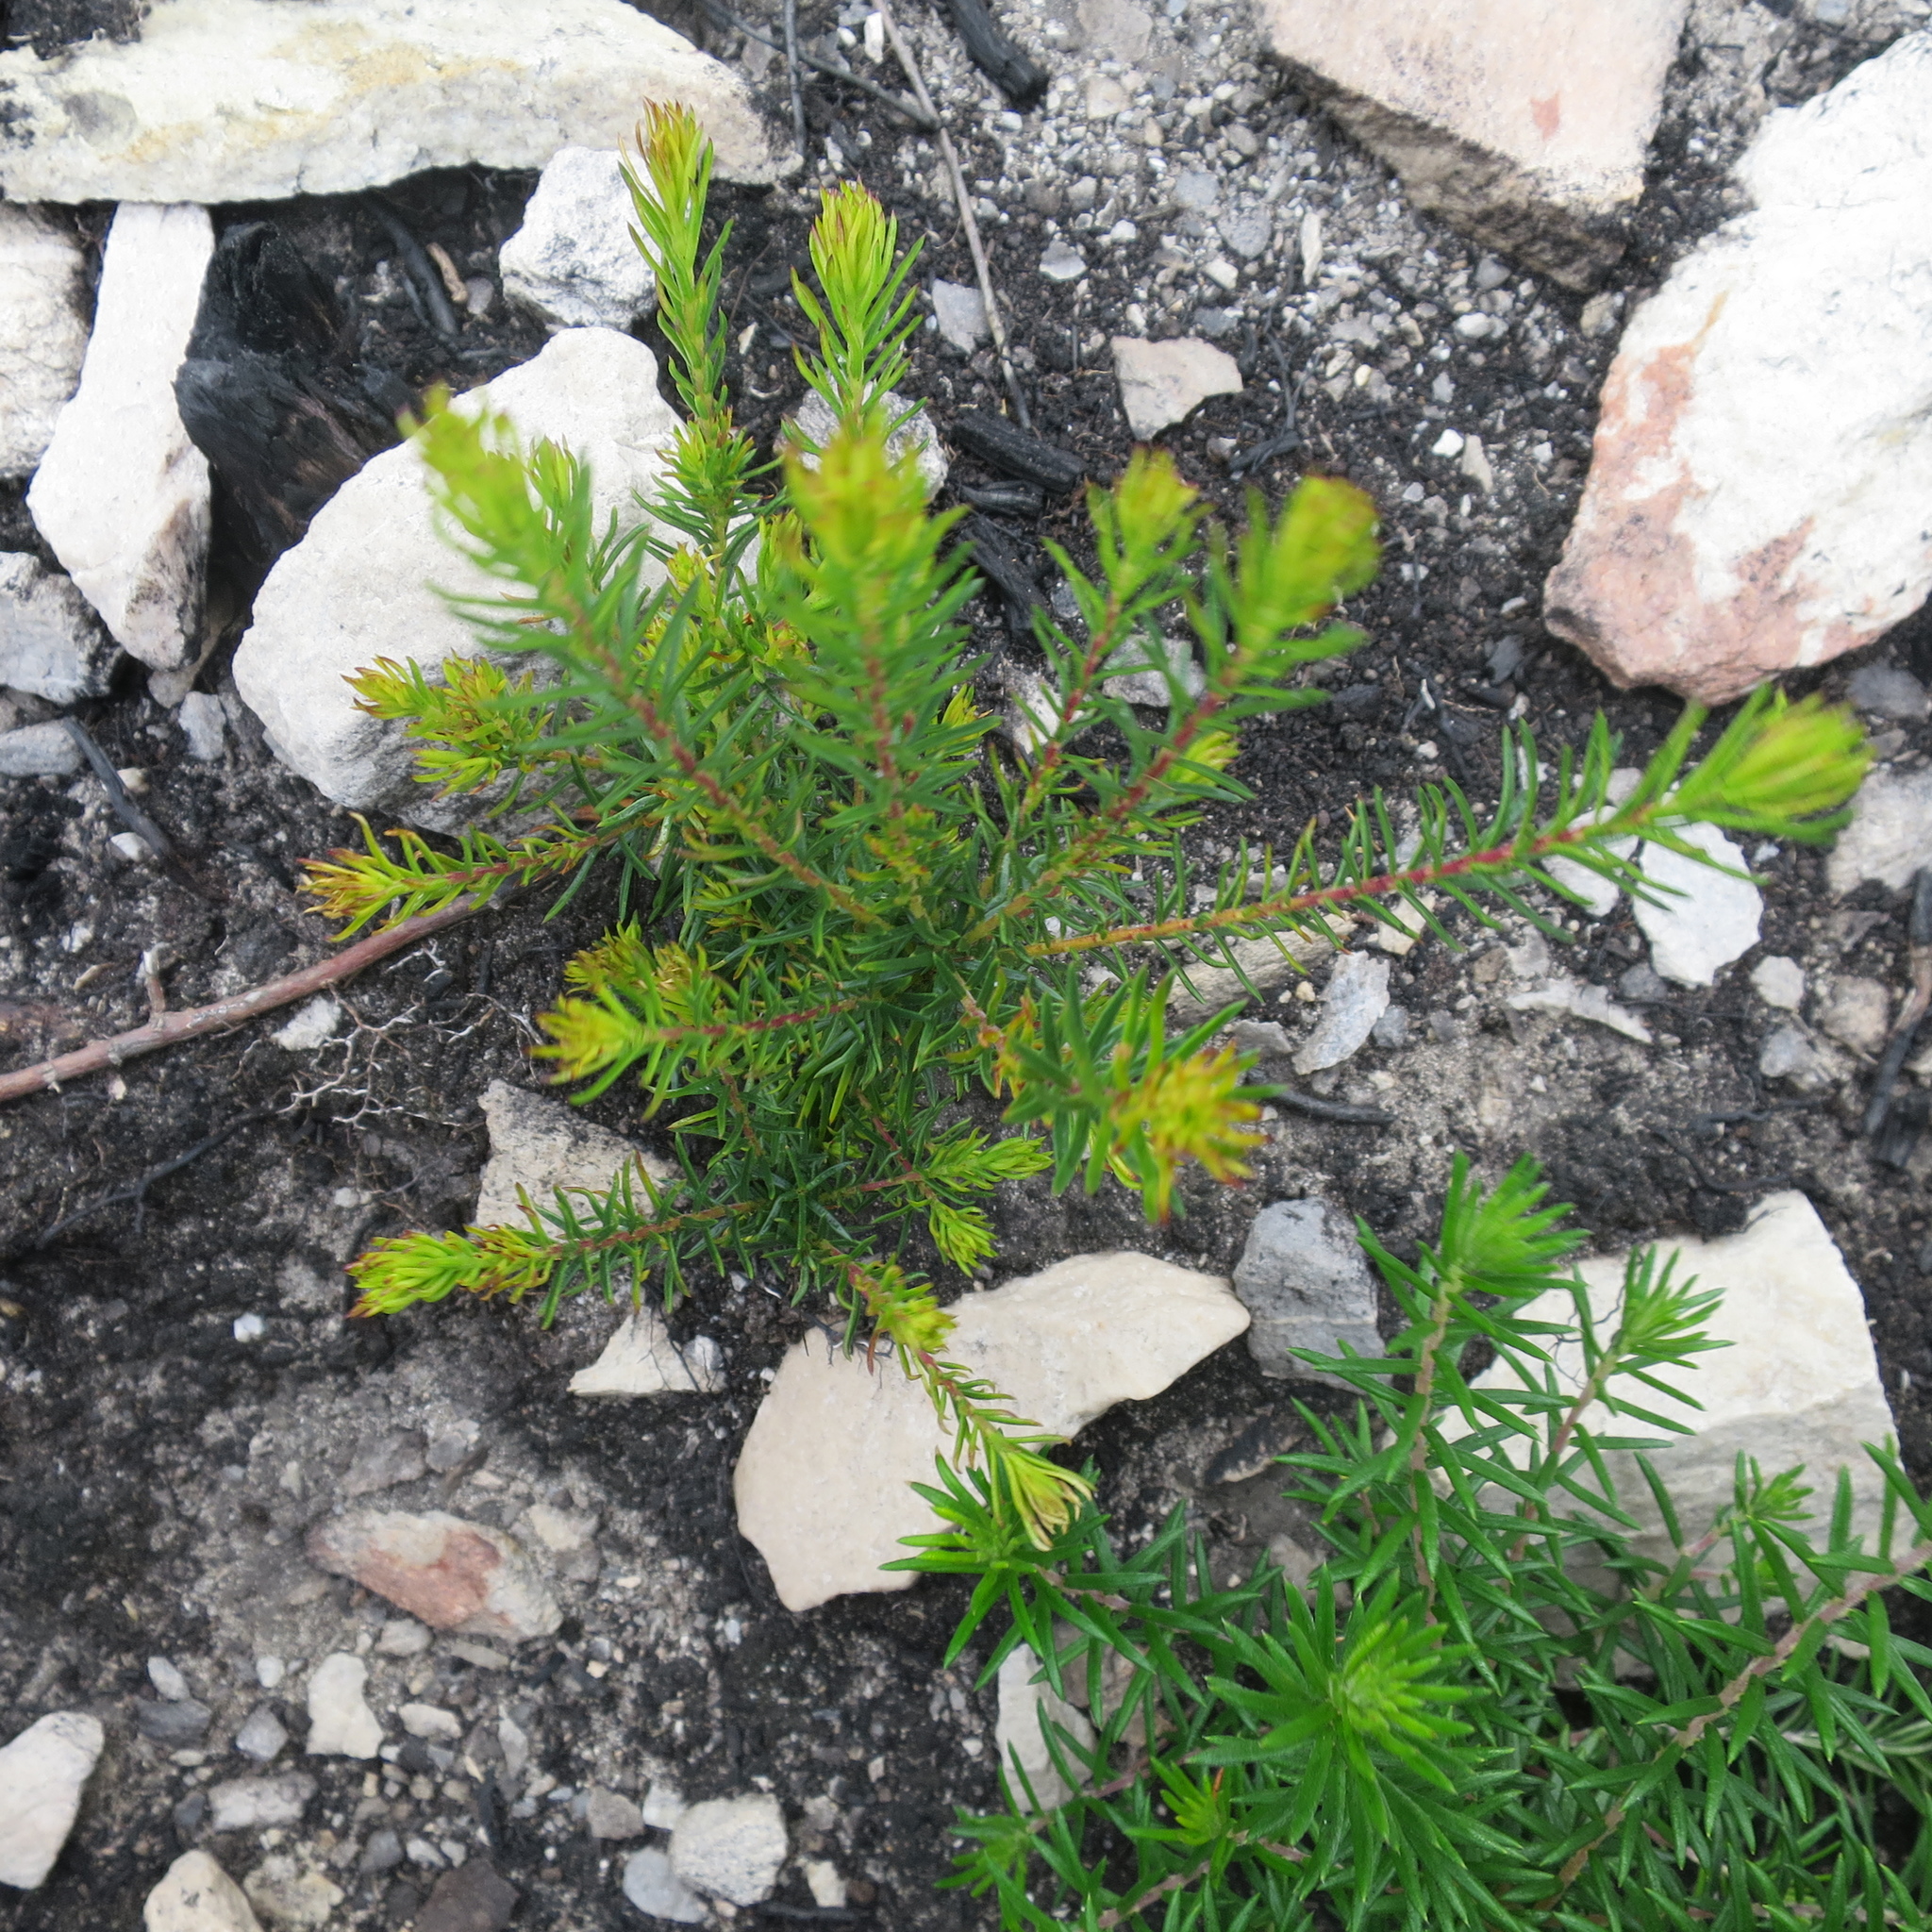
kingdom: Plantae
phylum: Tracheophyta
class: Magnoliopsida
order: Sapindales
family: Rutaceae
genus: Acmadenia
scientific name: Acmadenia alternifolia
